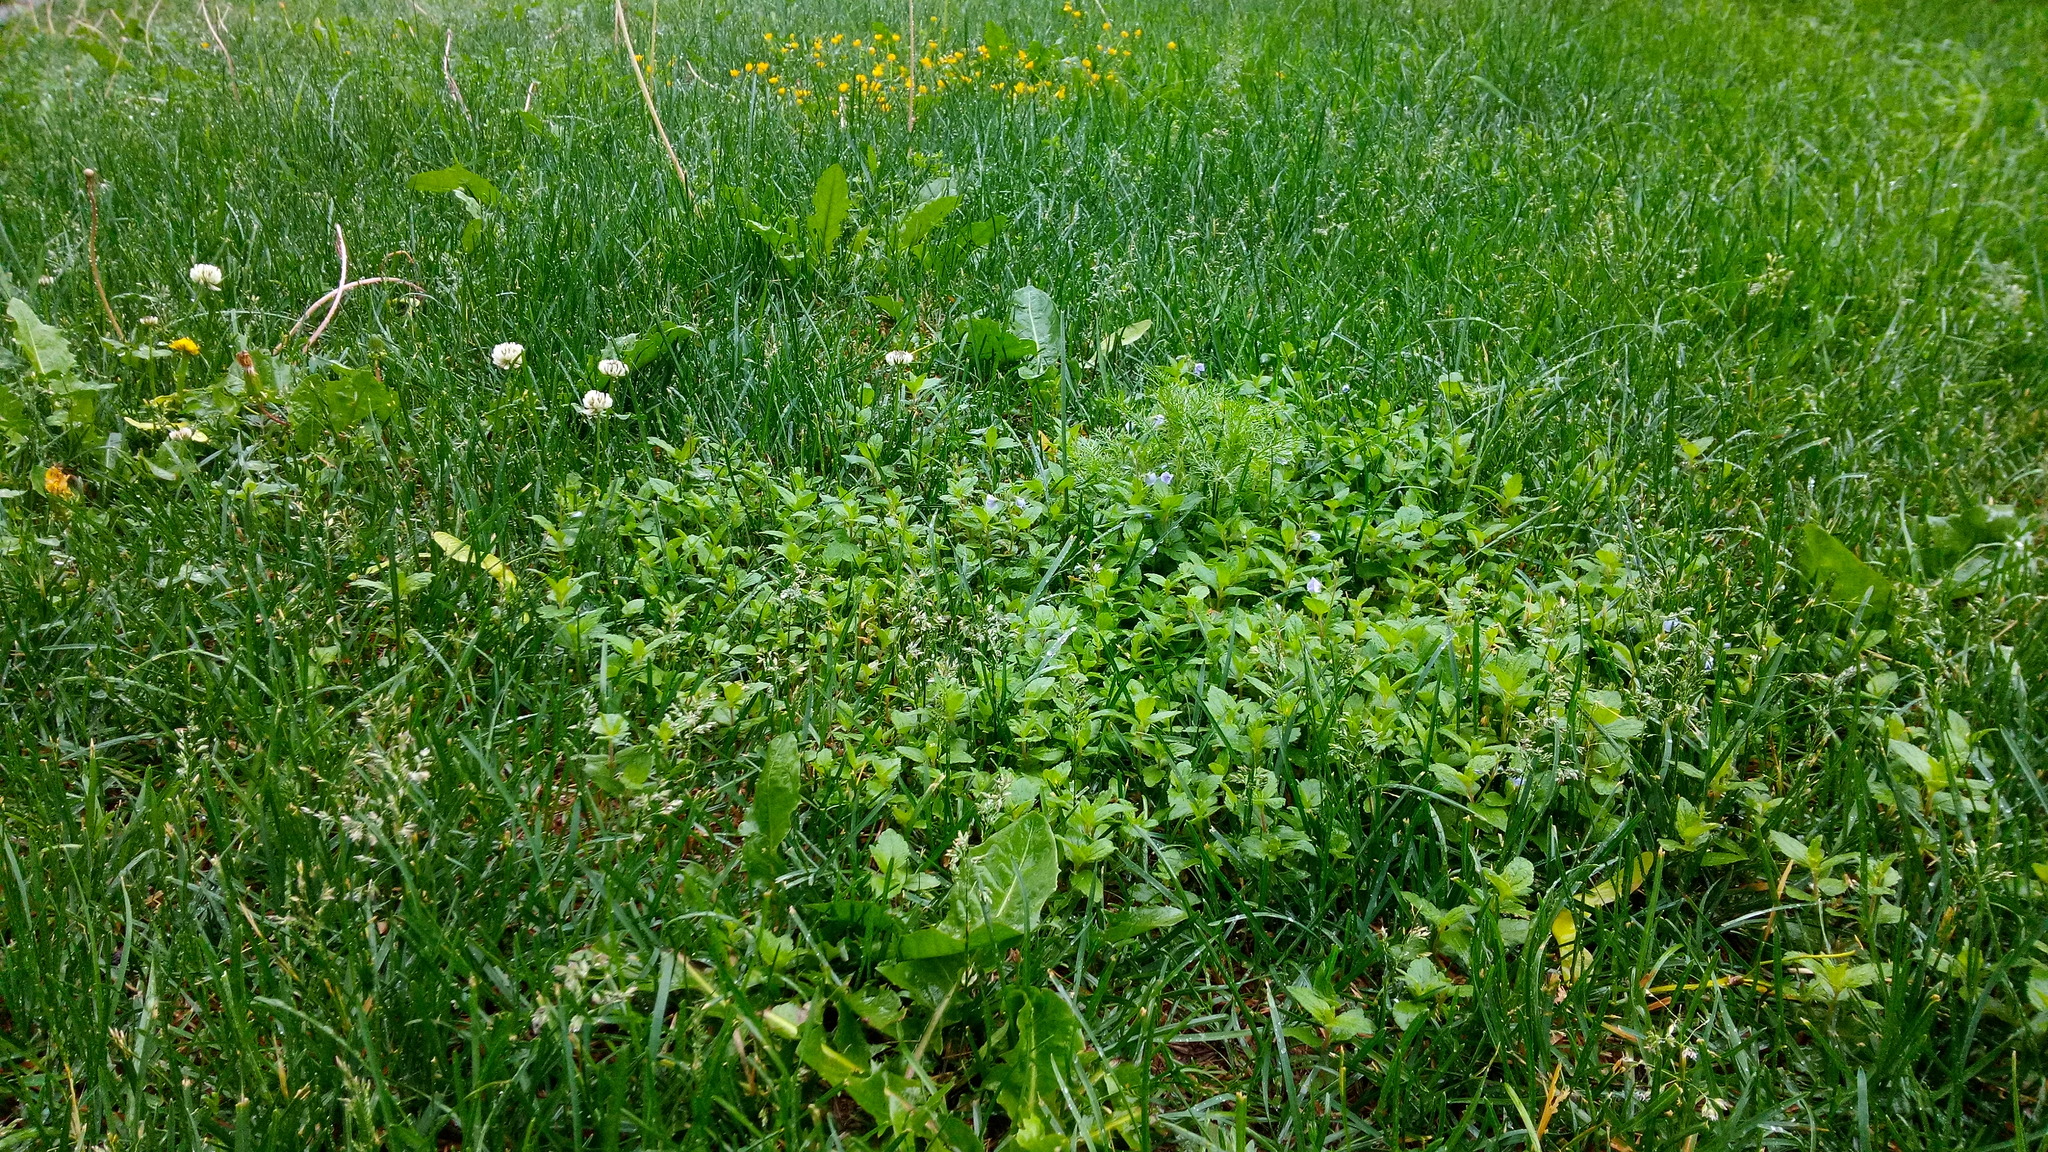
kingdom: Plantae
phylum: Tracheophyta
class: Magnoliopsida
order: Lamiales
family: Plantaginaceae
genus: Veronica
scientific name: Veronica chamaedrys
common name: Germander speedwell
